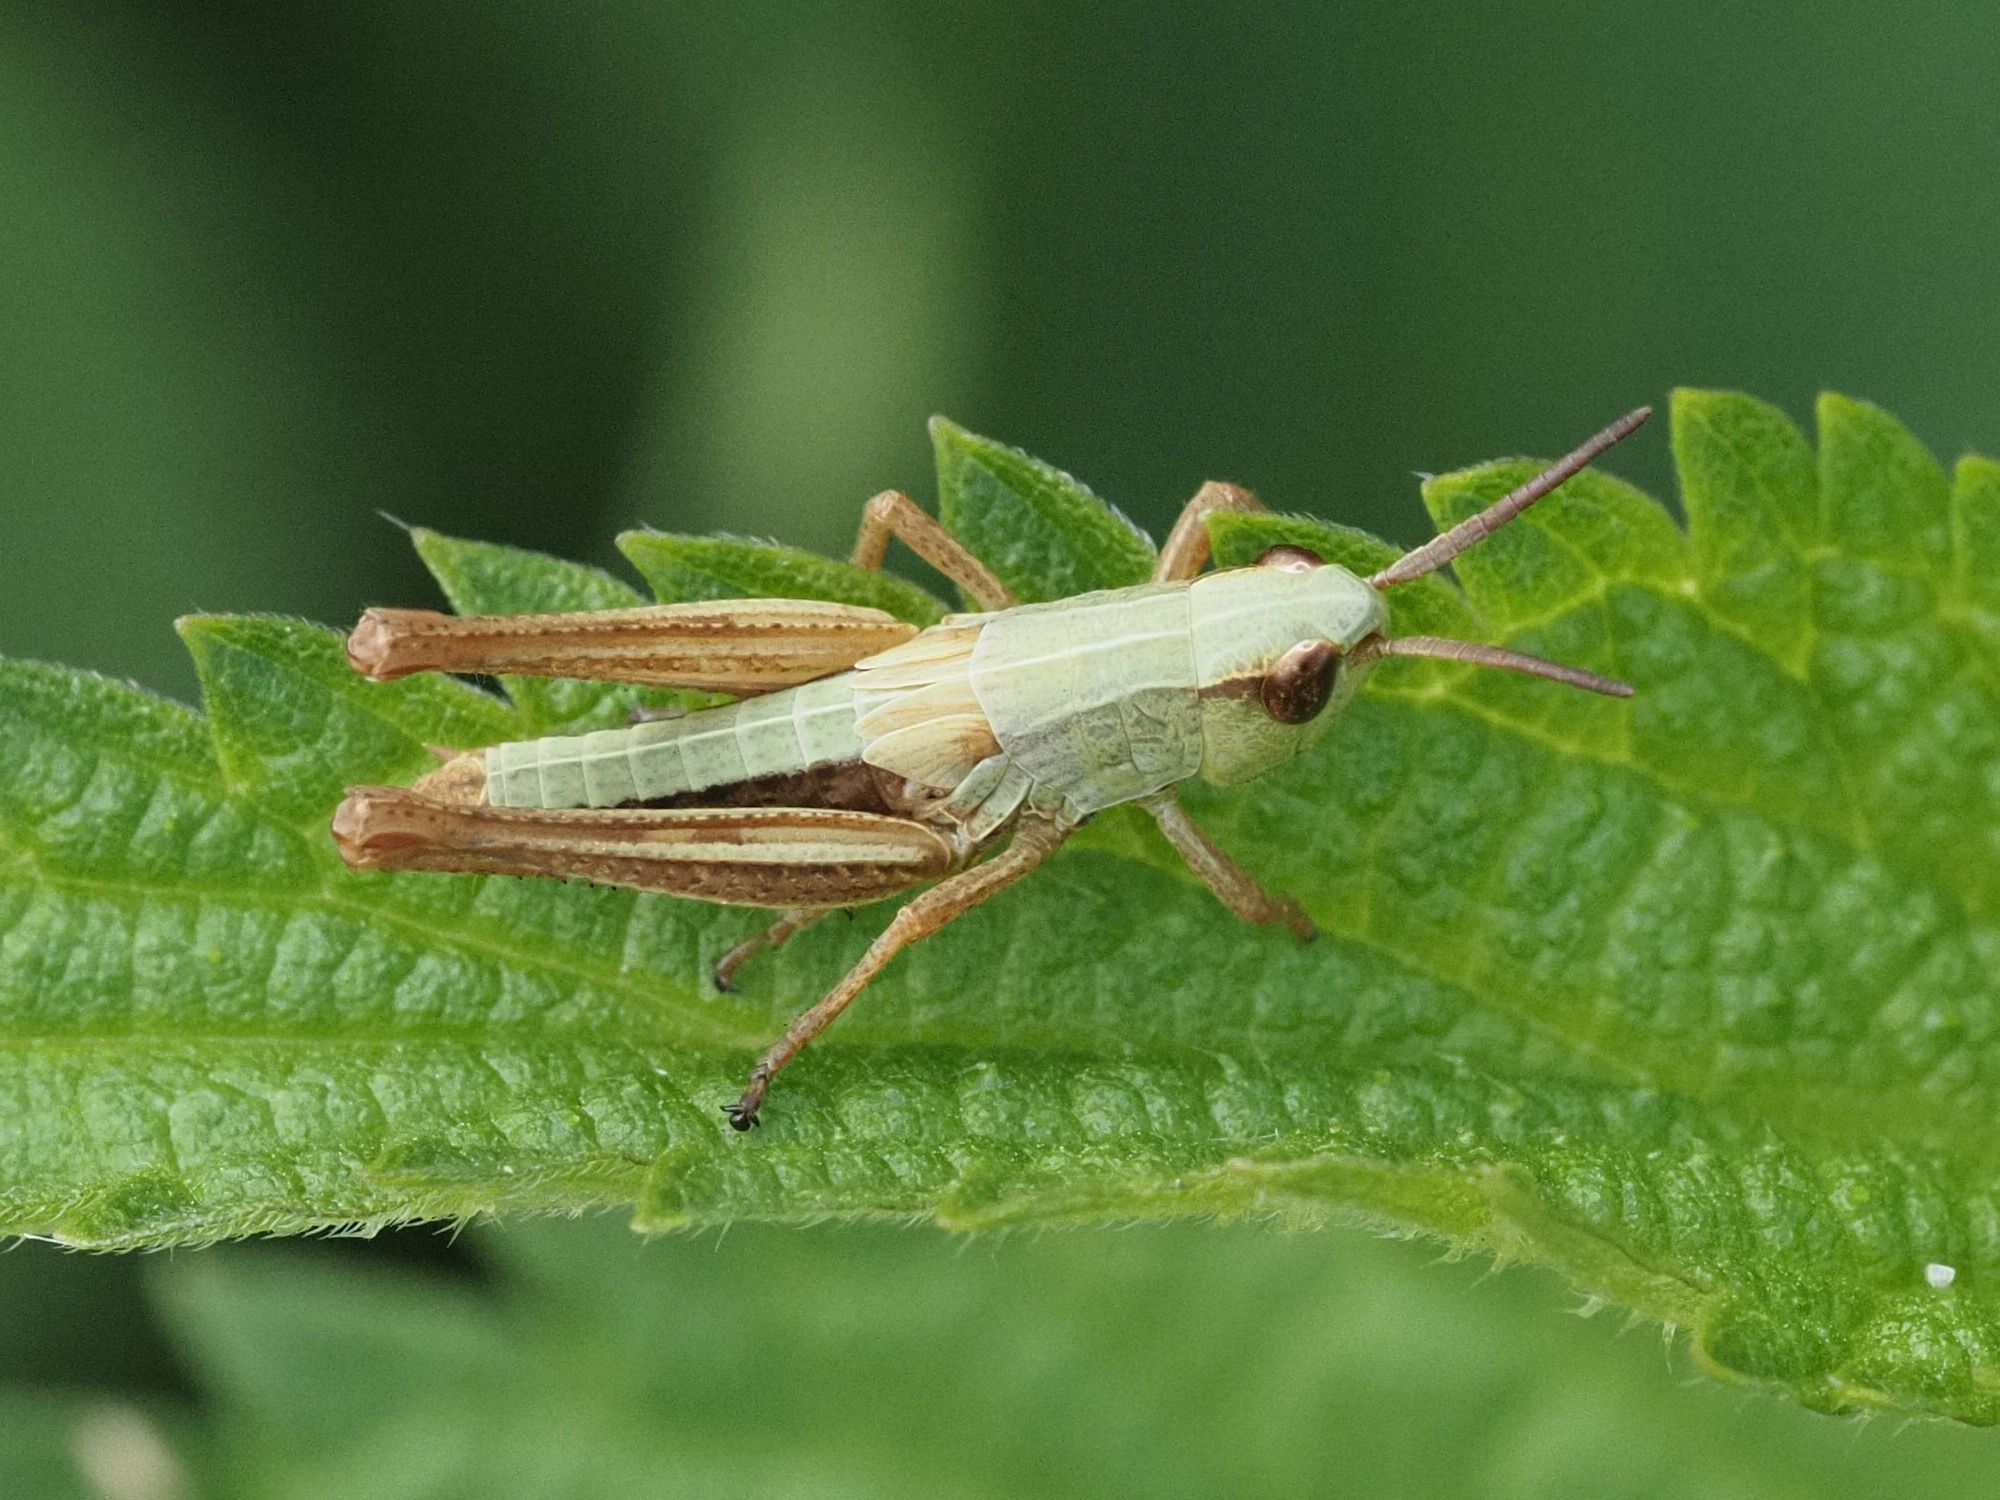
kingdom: Animalia
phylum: Arthropoda
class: Insecta
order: Orthoptera
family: Acrididae
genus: Pseudochorthippus
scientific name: Pseudochorthippus parallelus
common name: Meadow grasshopper
